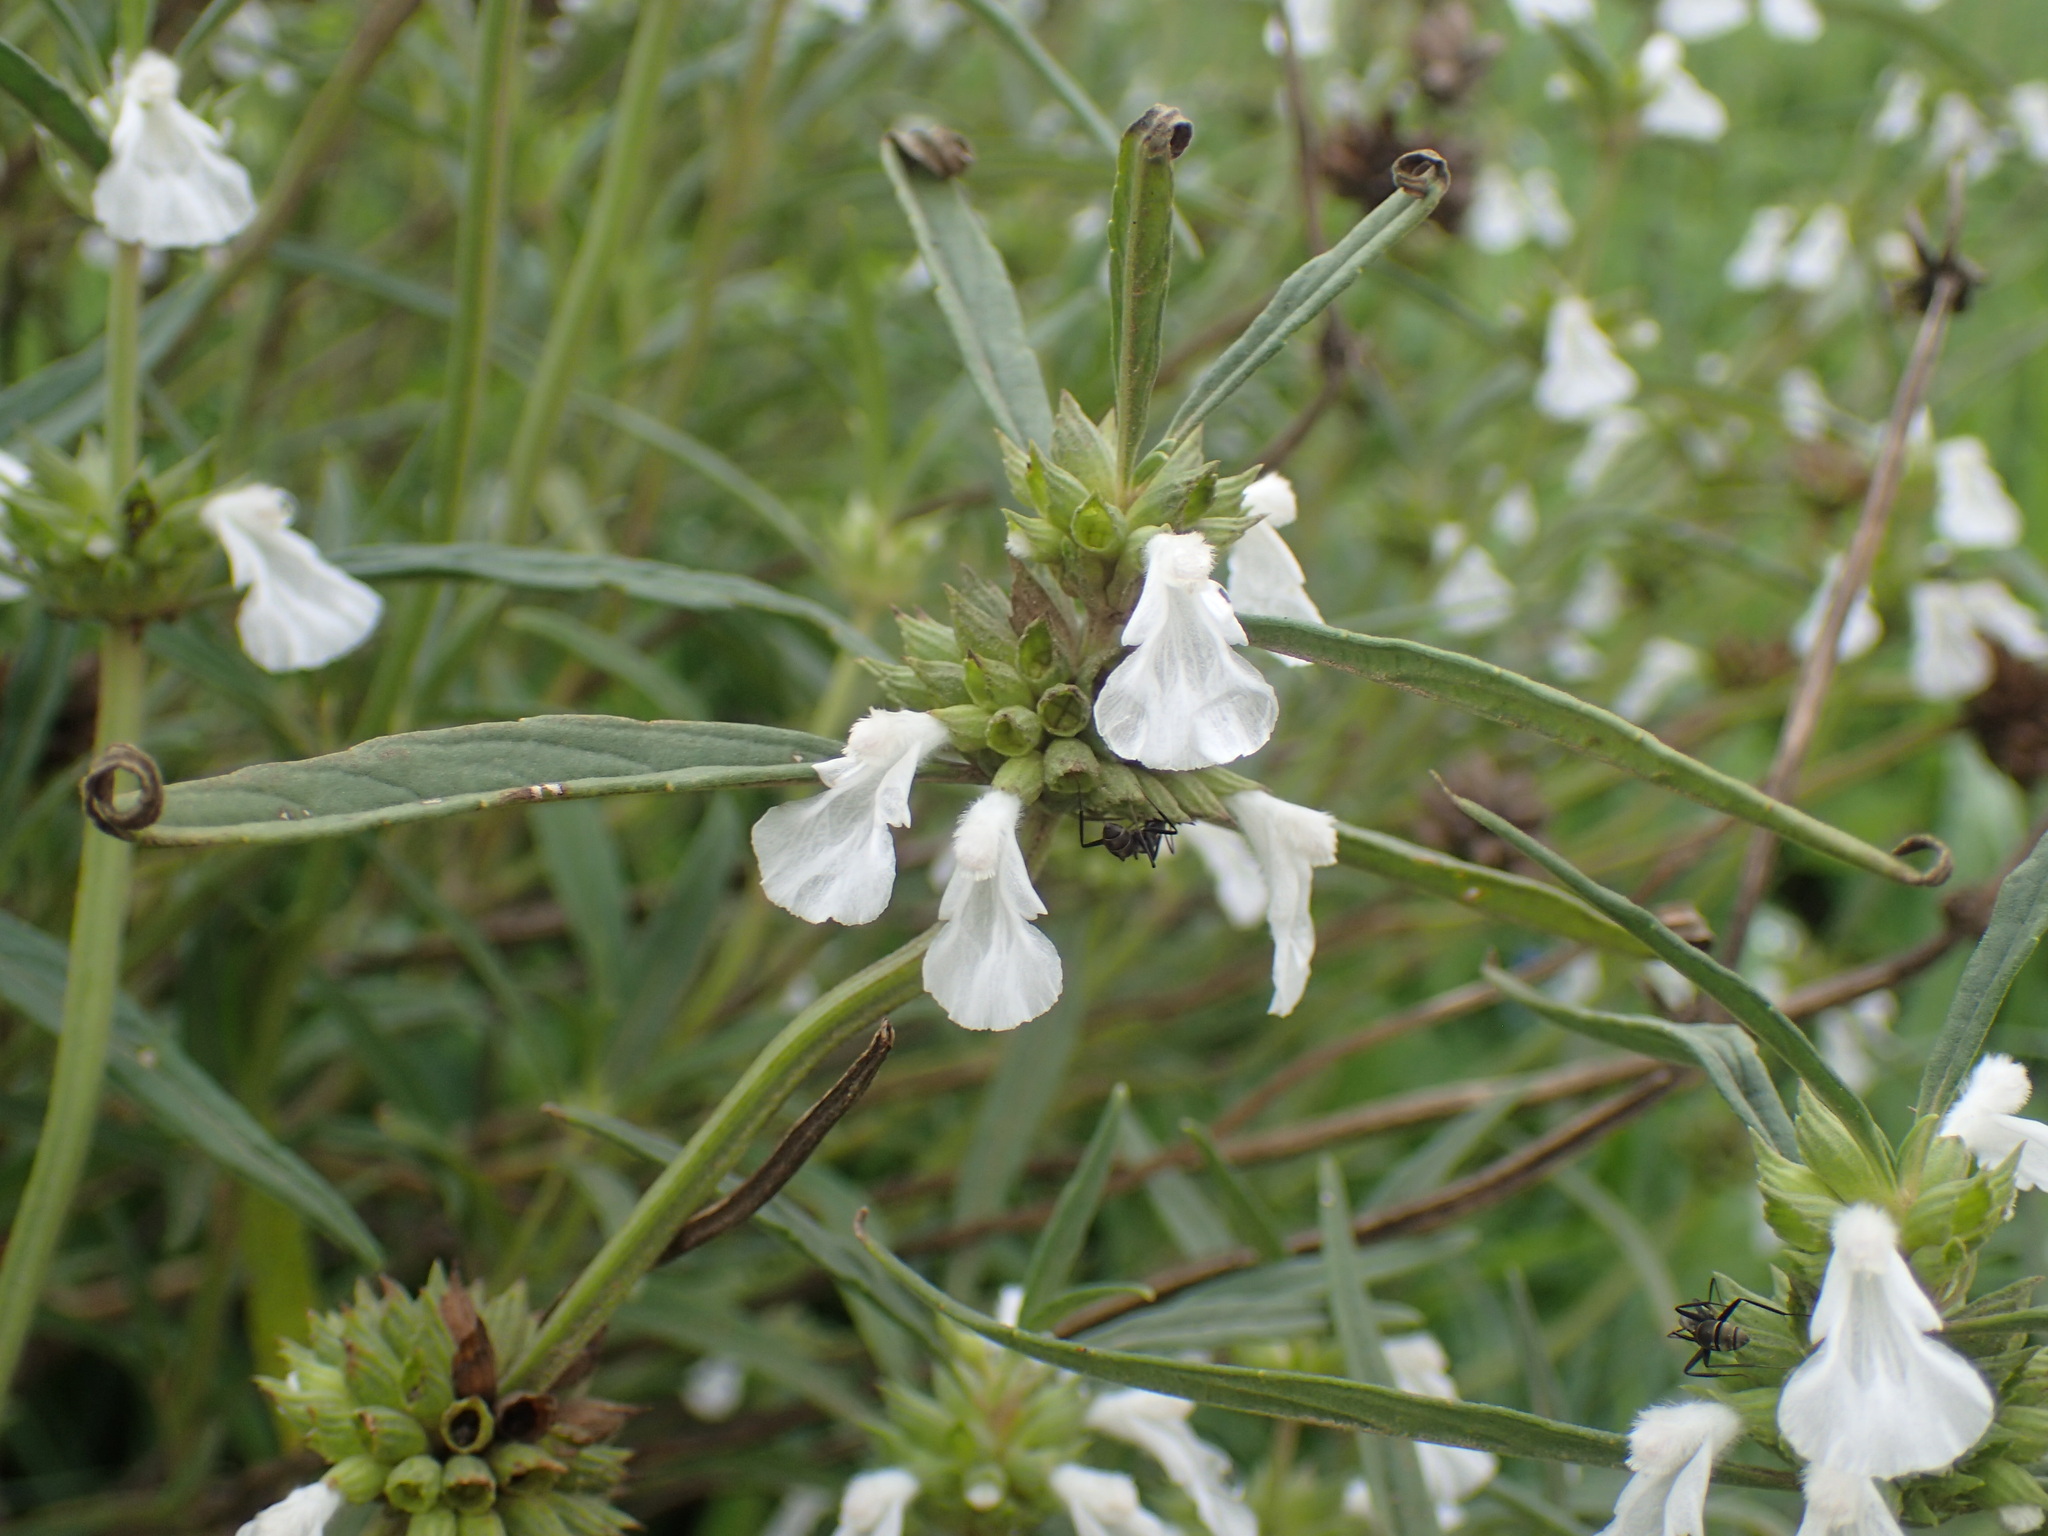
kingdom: Plantae
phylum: Tracheophyta
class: Magnoliopsida
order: Lamiales
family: Lamiaceae
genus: Leucas
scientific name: Leucas lavandulifolia
